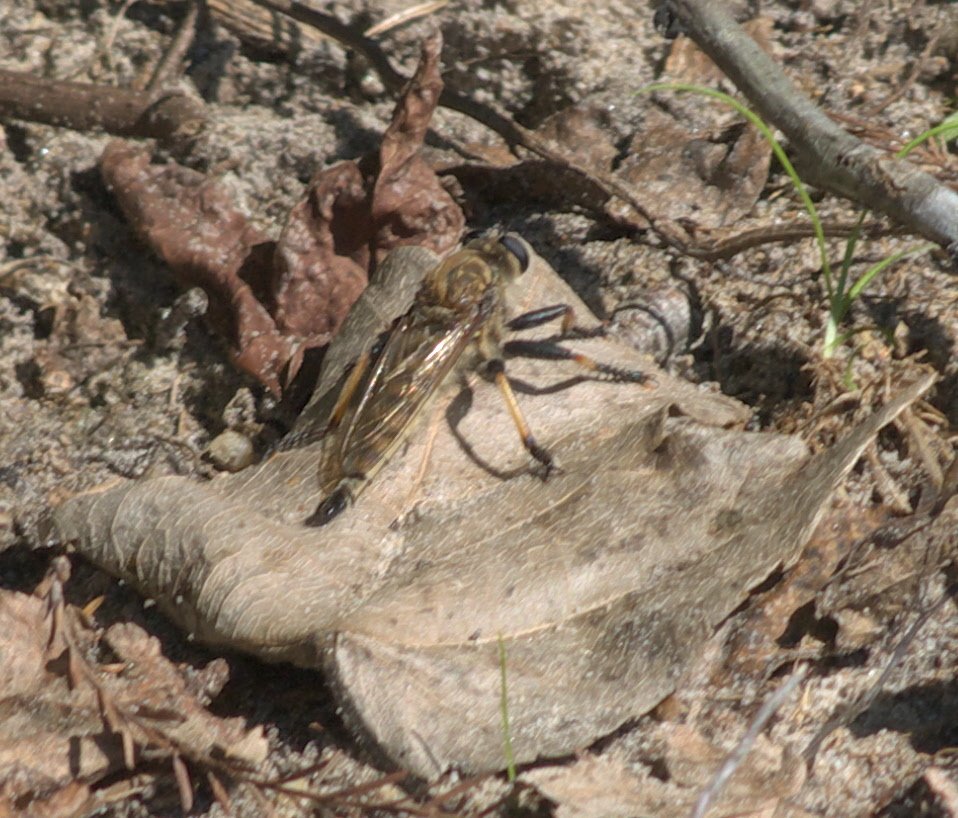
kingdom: Animalia
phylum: Arthropoda
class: Insecta
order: Diptera
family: Asilidae
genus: Promachus
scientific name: Promachus rufipes
